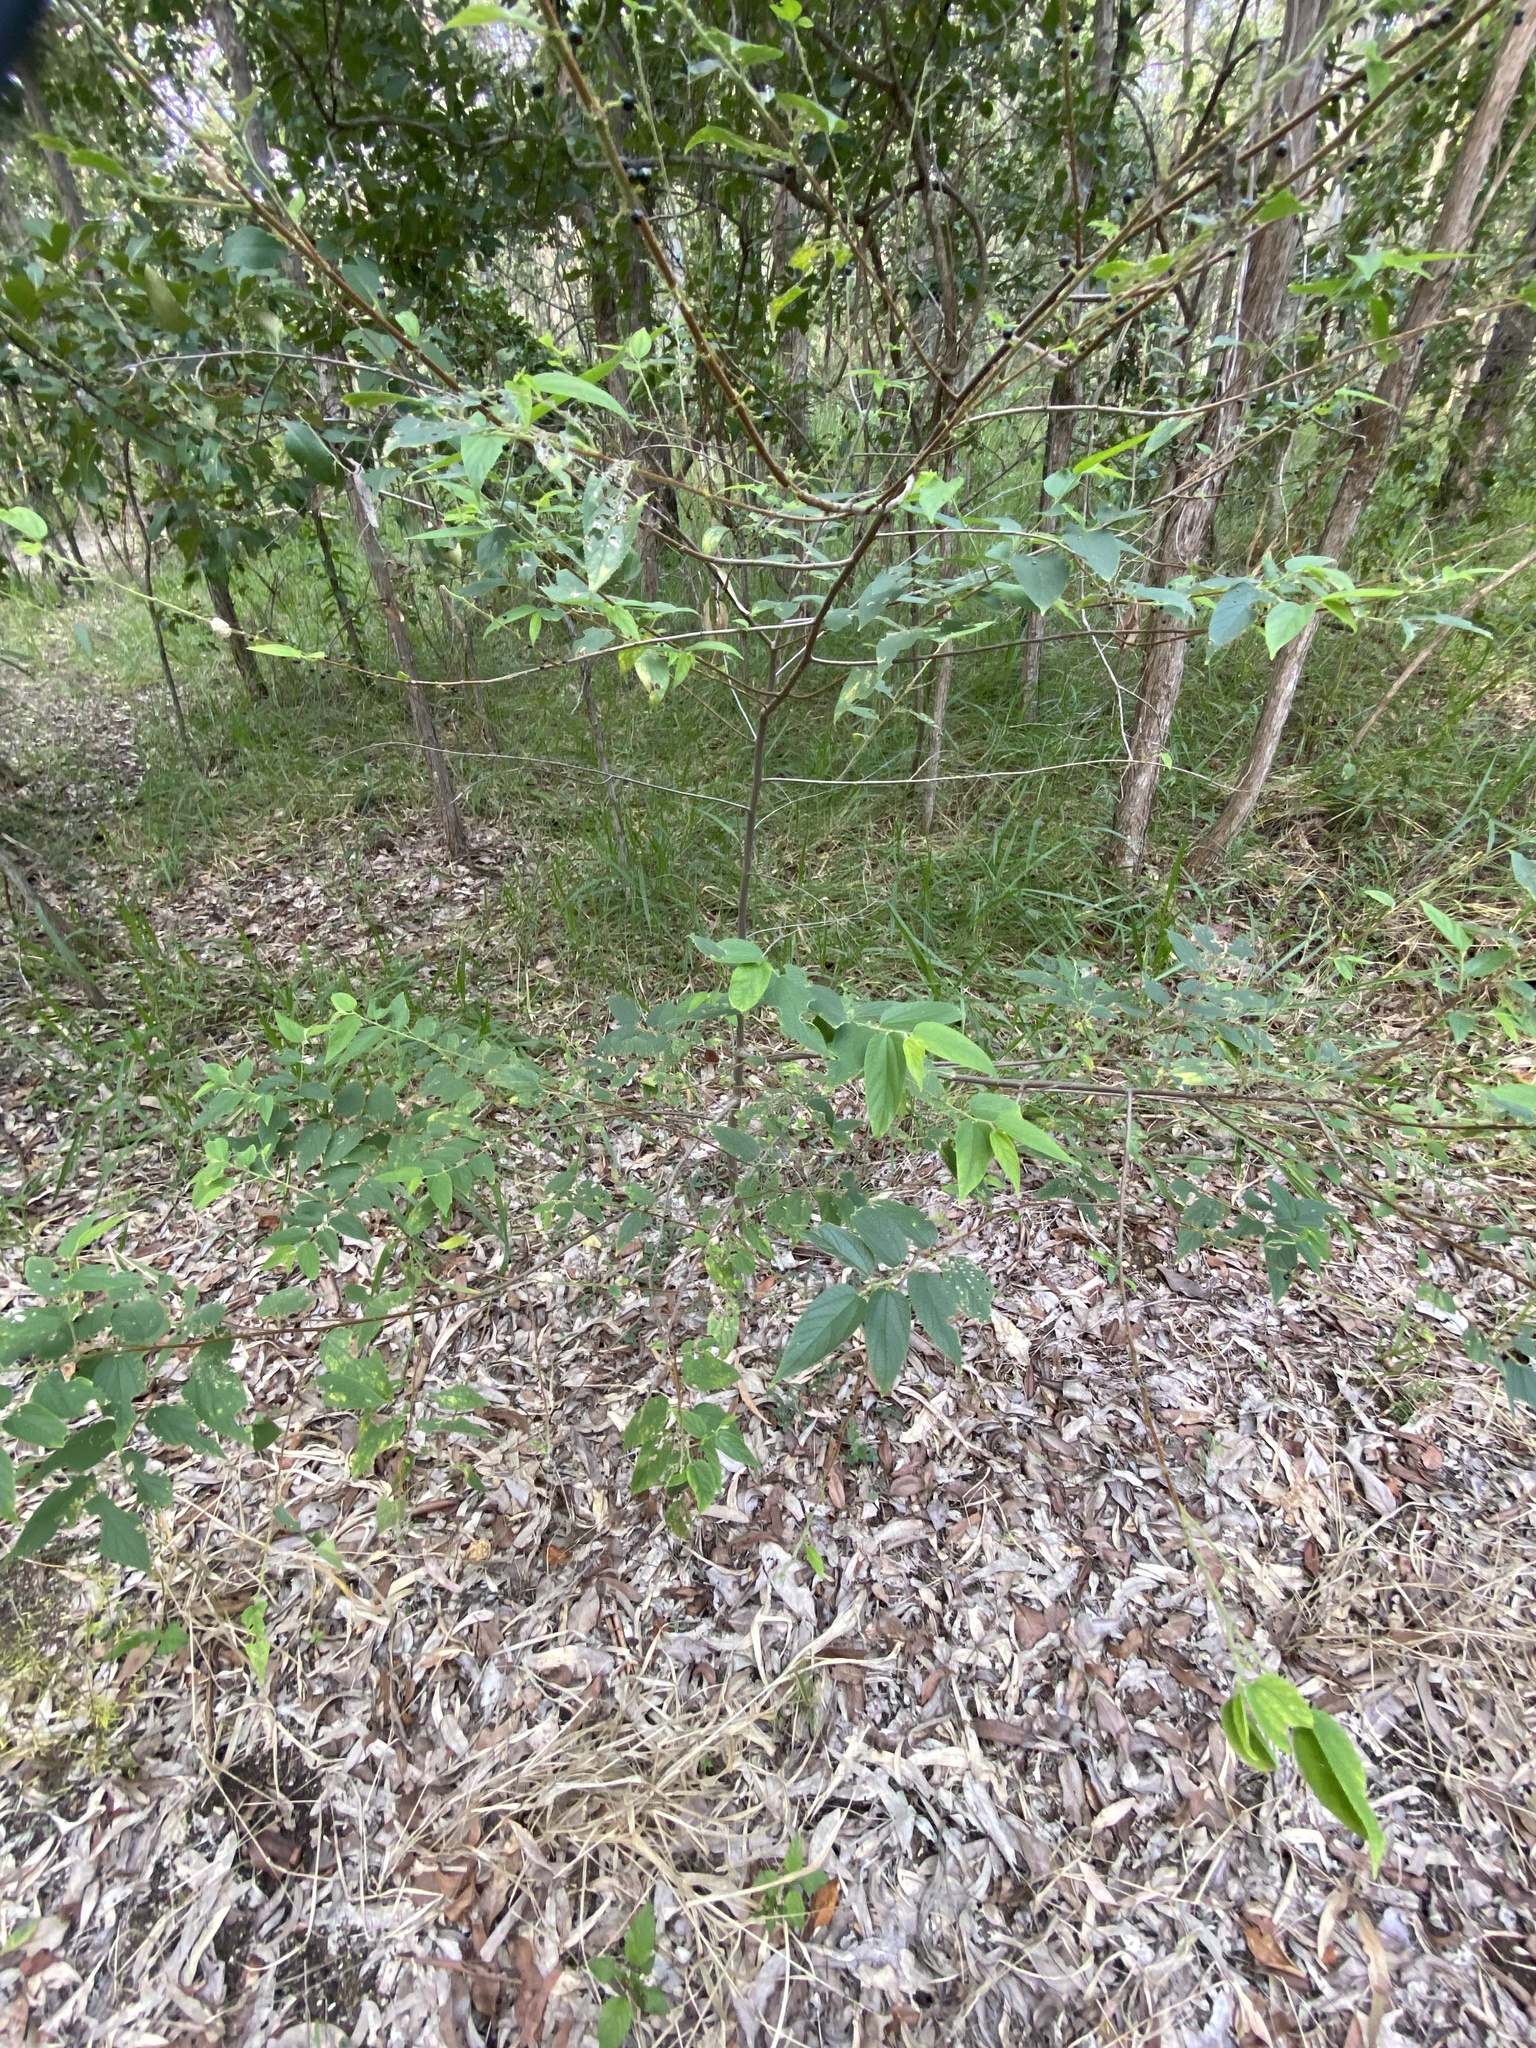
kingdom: Plantae
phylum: Tracheophyta
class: Magnoliopsida
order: Rosales
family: Cannabaceae
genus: Trema
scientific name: Trema tomentosum
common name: Peach-leaf-poisonbush
